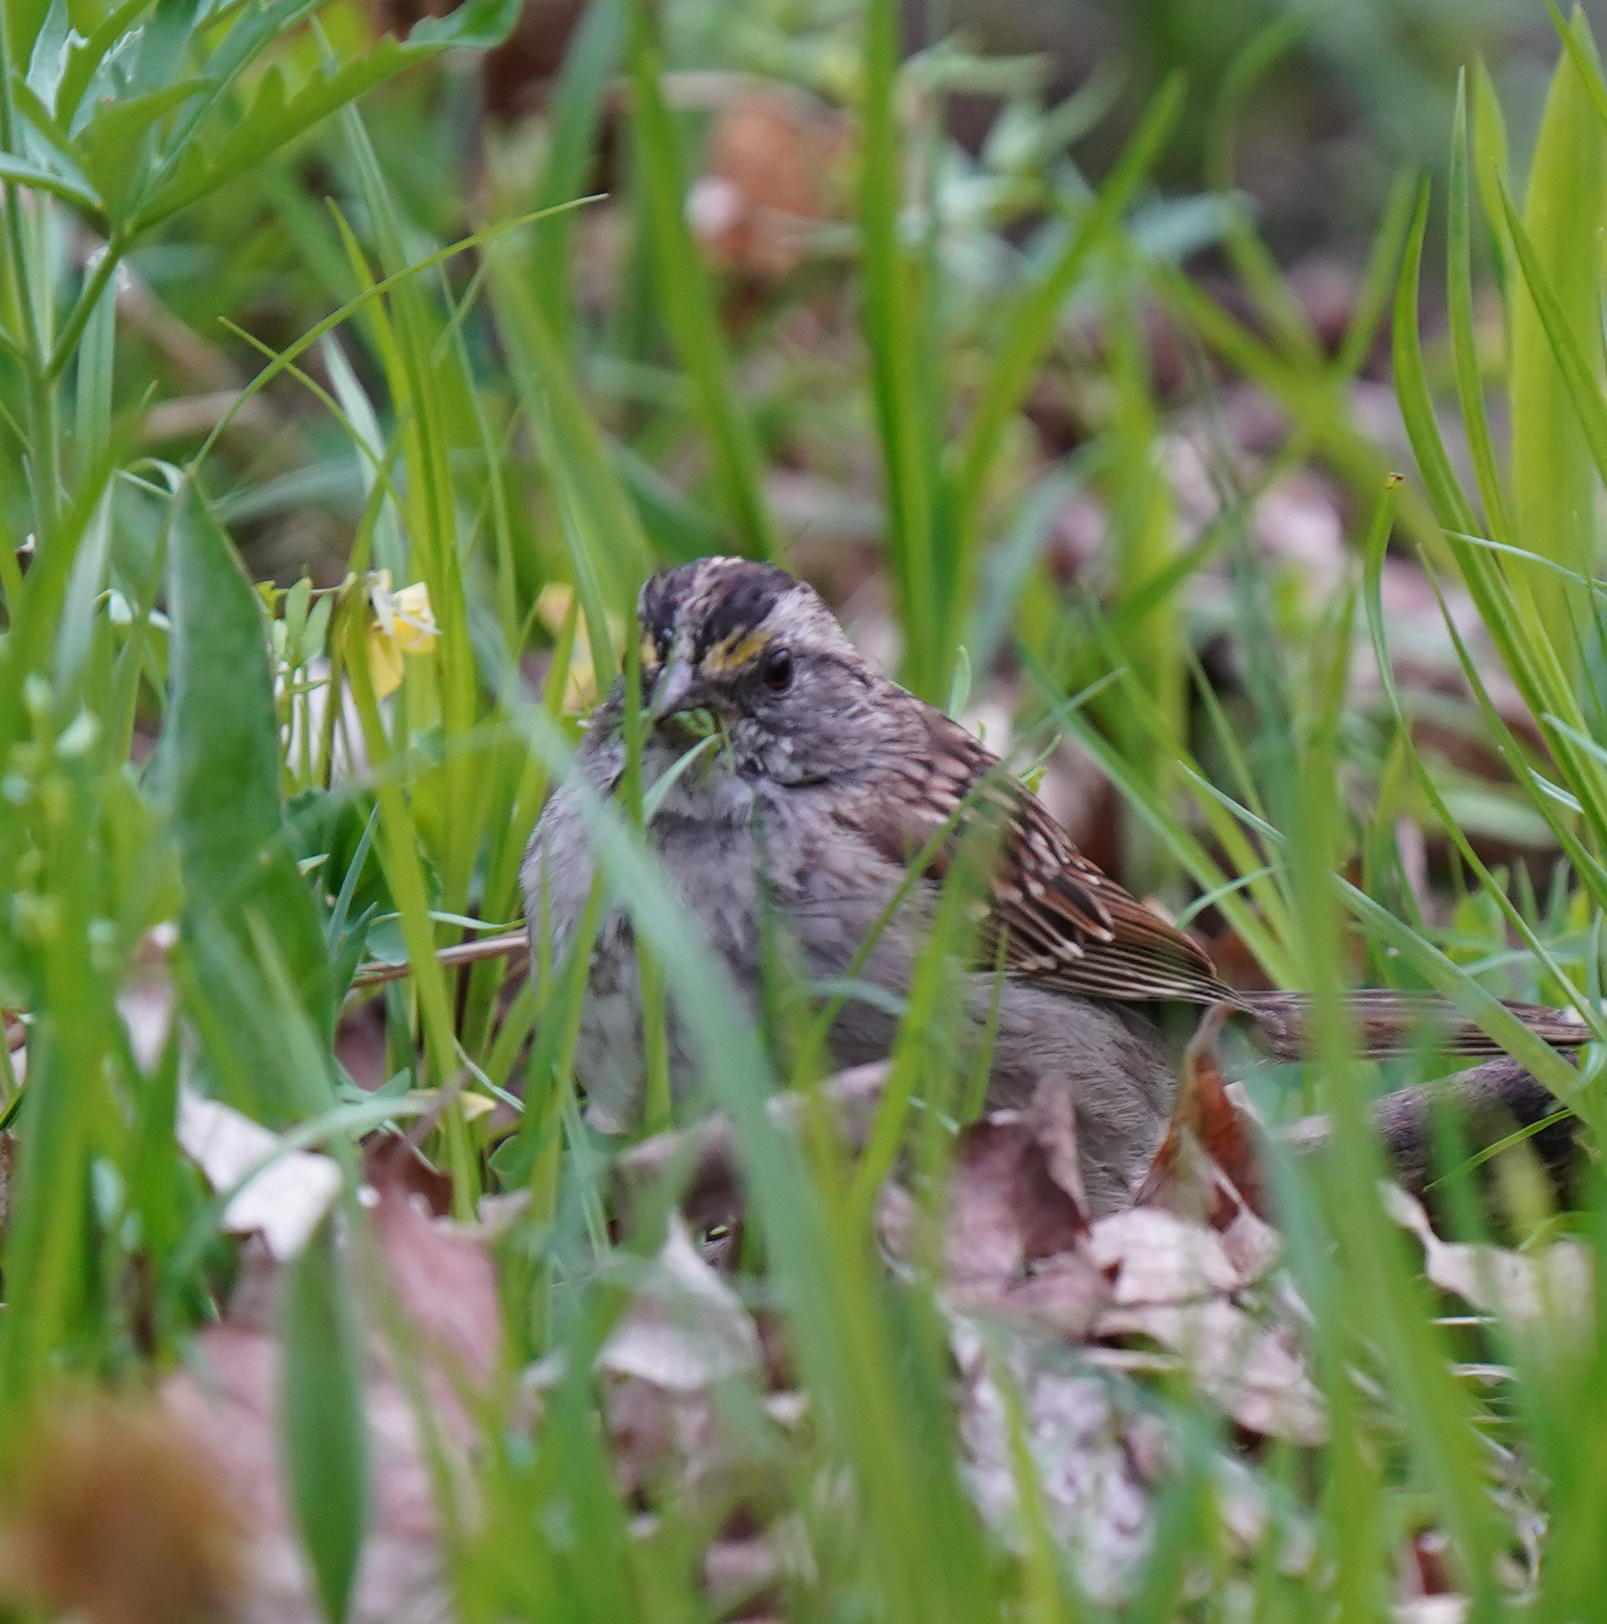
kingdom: Animalia
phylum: Chordata
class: Aves
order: Passeriformes
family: Passerellidae
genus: Zonotrichia
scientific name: Zonotrichia albicollis
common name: White-throated sparrow
